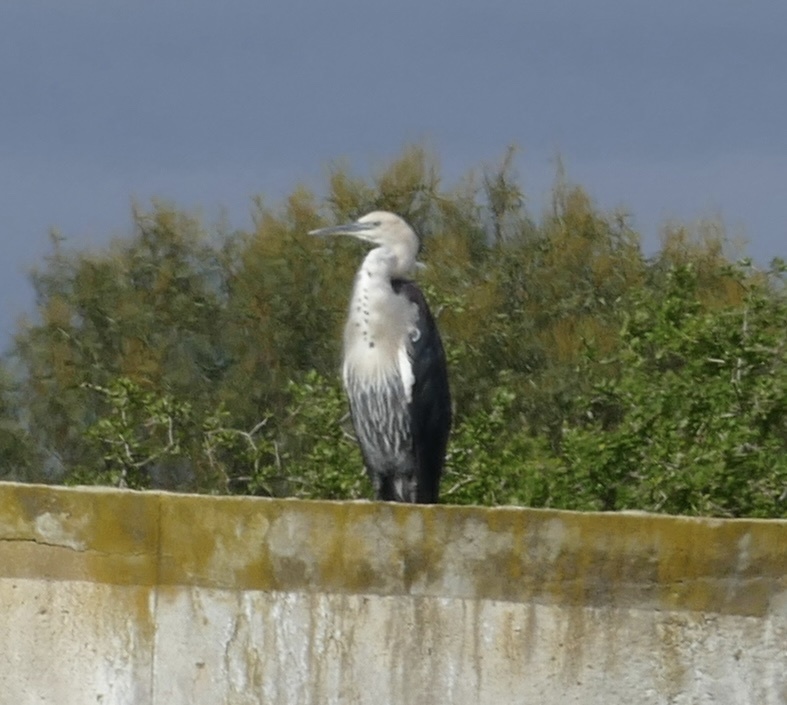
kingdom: Animalia
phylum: Chordata
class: Aves
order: Pelecaniformes
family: Ardeidae
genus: Ardea
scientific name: Ardea pacifica
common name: White-necked heron
